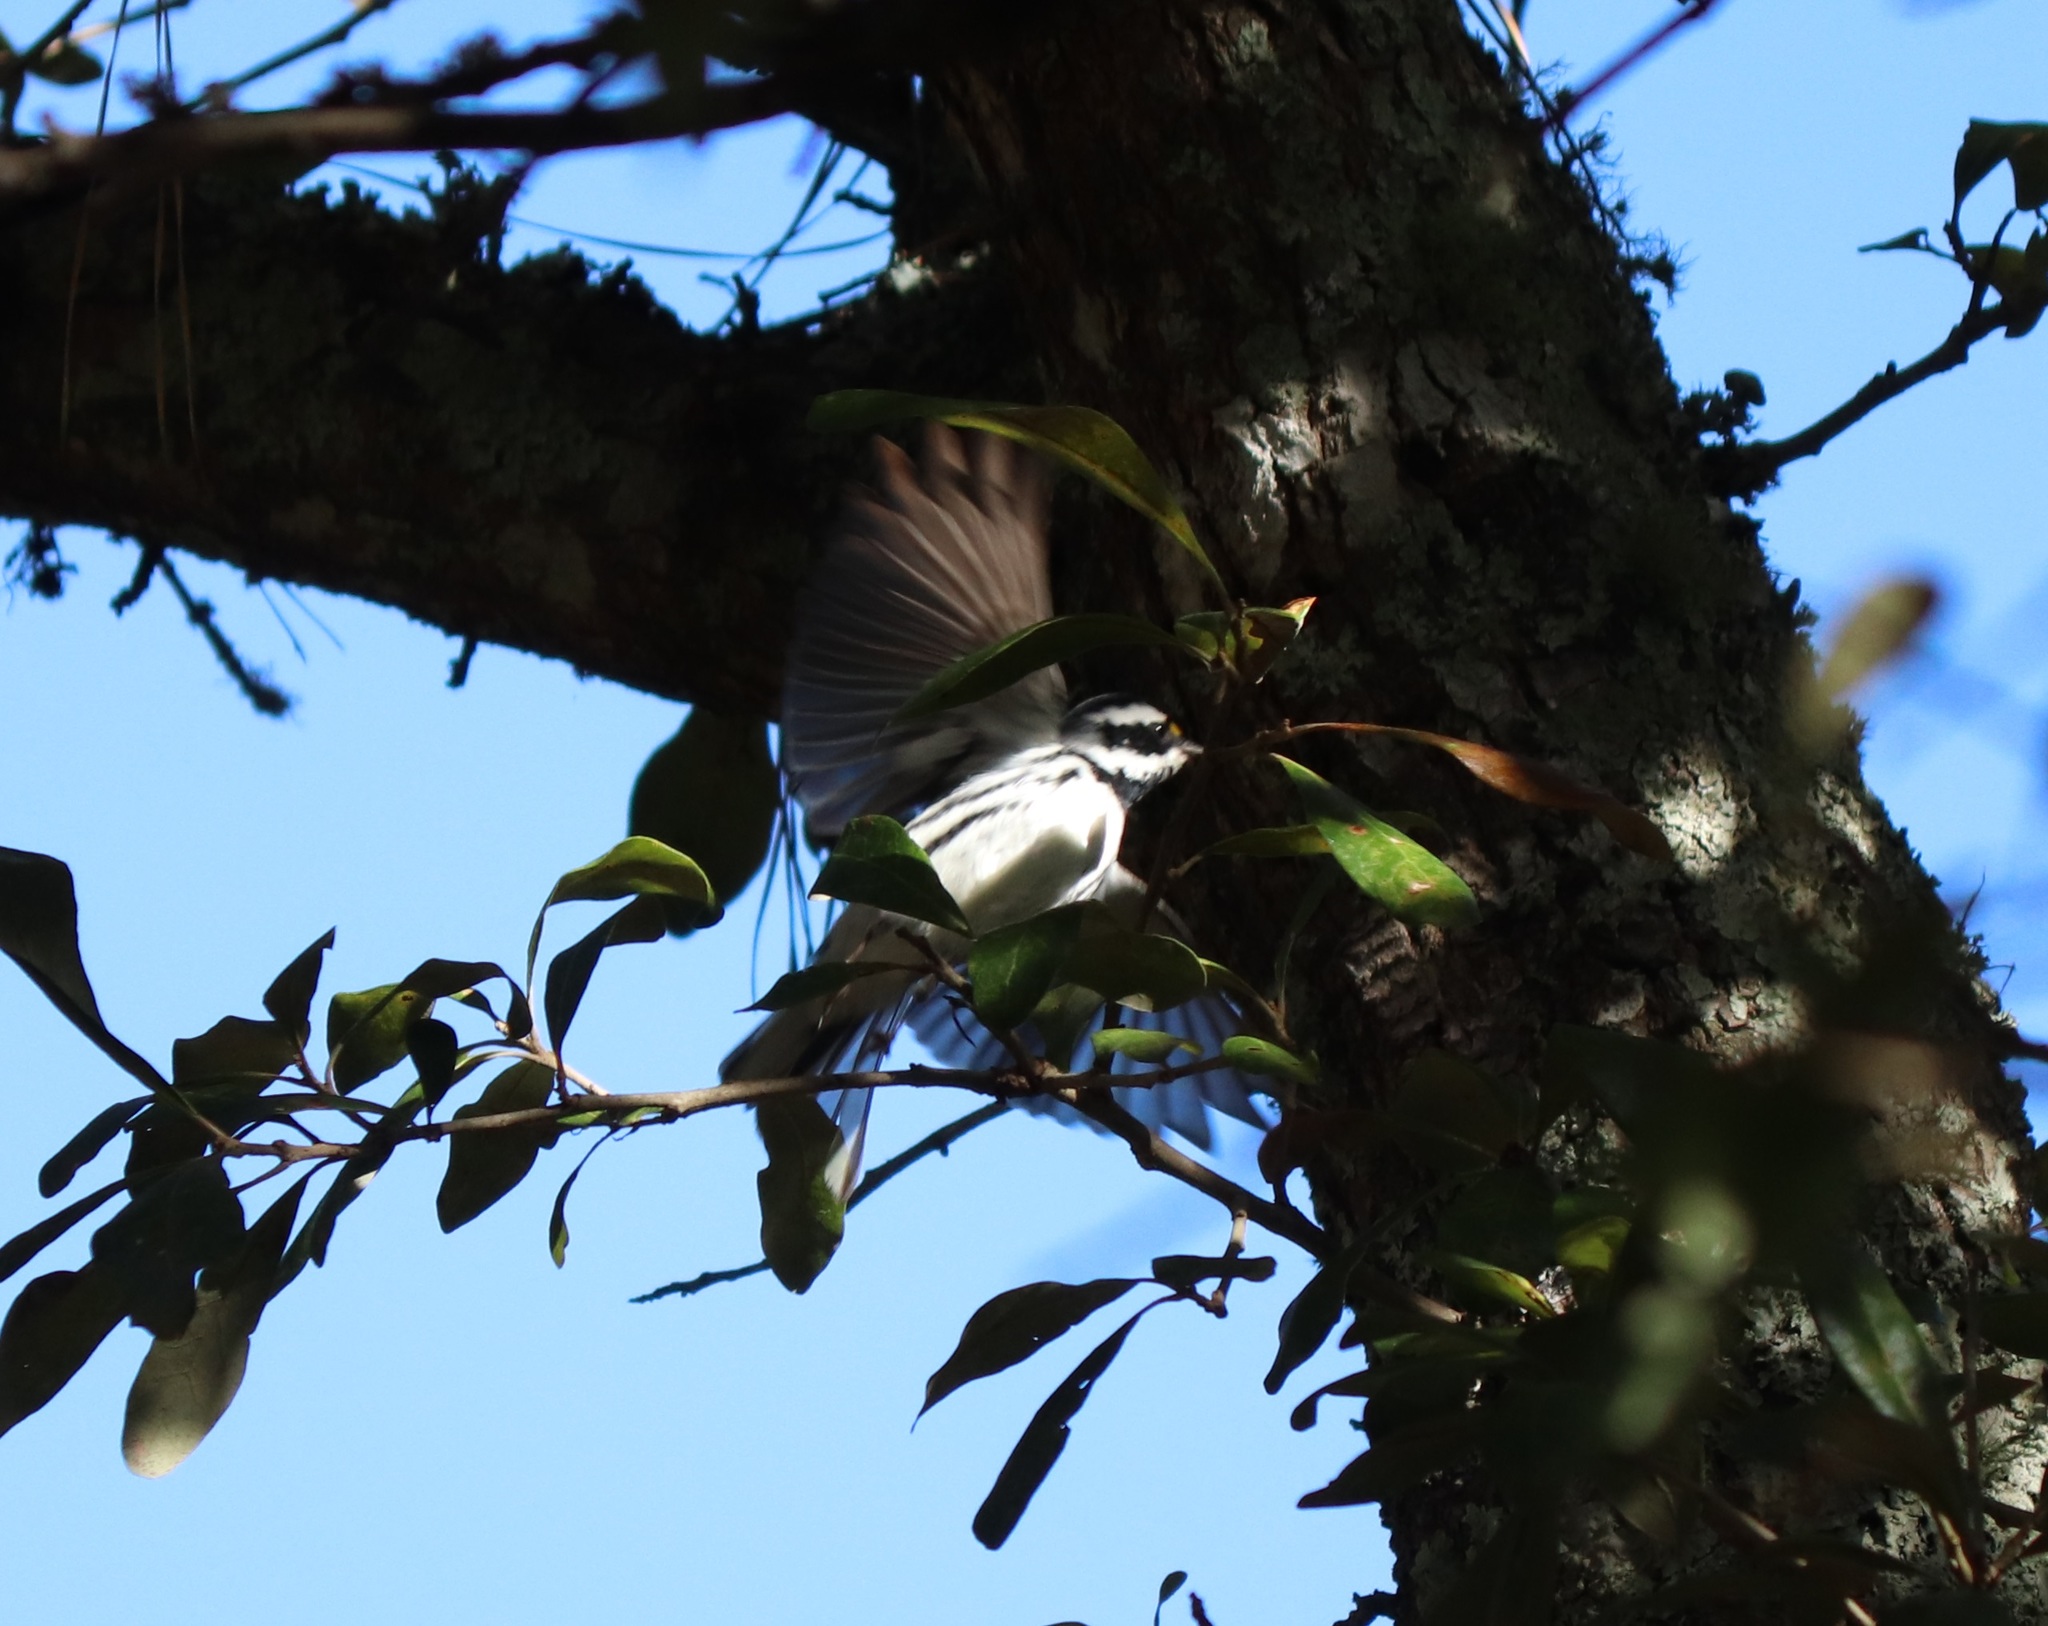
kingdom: Animalia
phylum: Chordata
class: Aves
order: Passeriformes
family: Parulidae
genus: Setophaga
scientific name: Setophaga nigrescens
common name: Black-throated gray warbler
